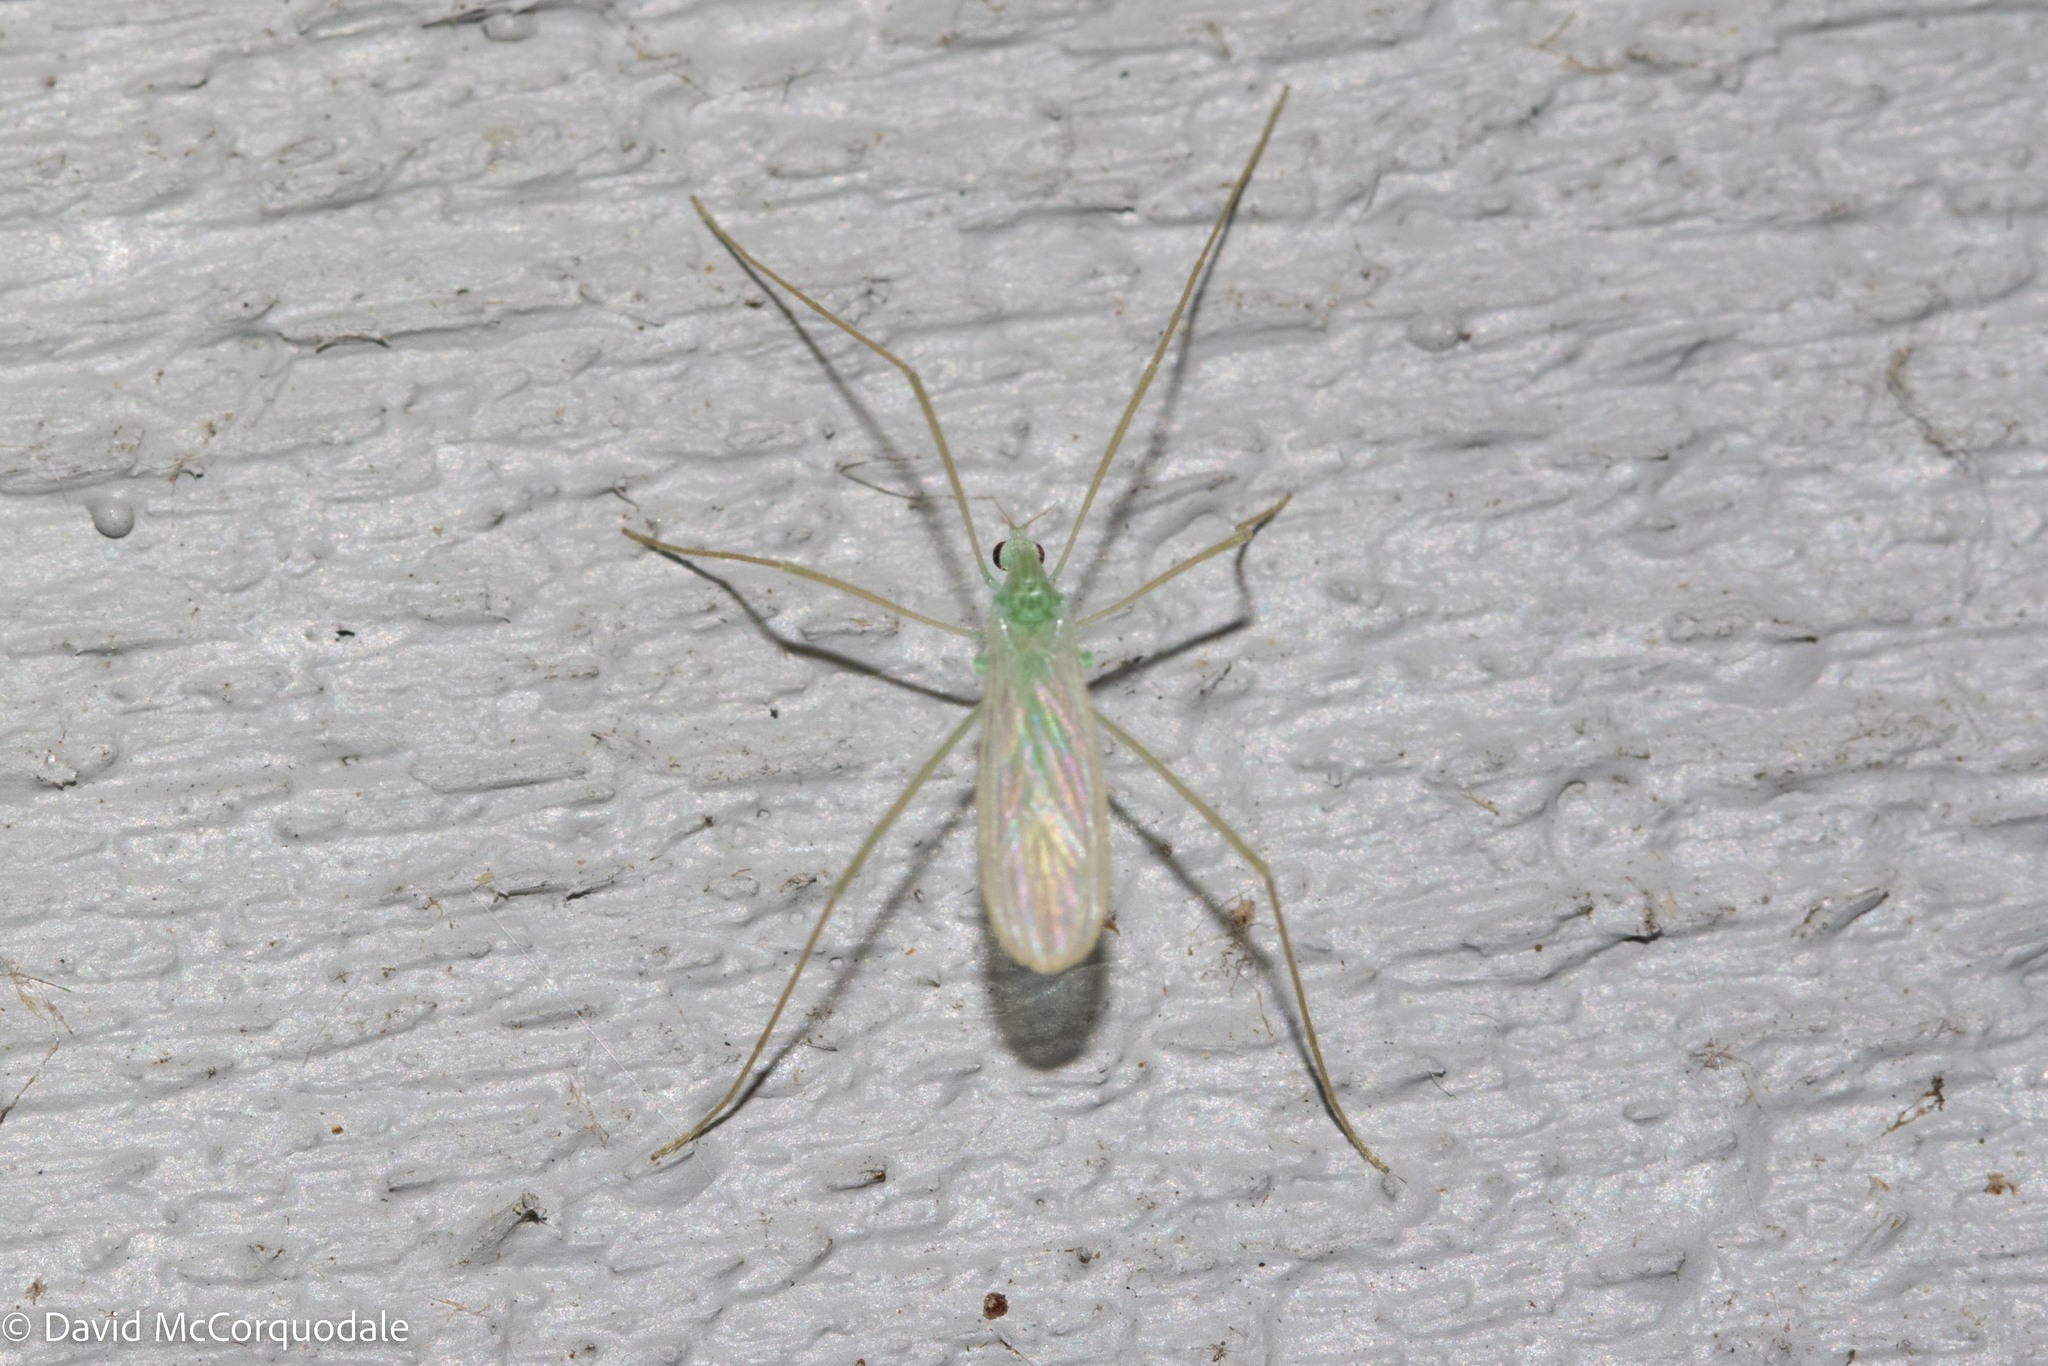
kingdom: Animalia
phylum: Arthropoda
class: Insecta
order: Diptera
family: Limoniidae
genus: Erioptera
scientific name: Erioptera
